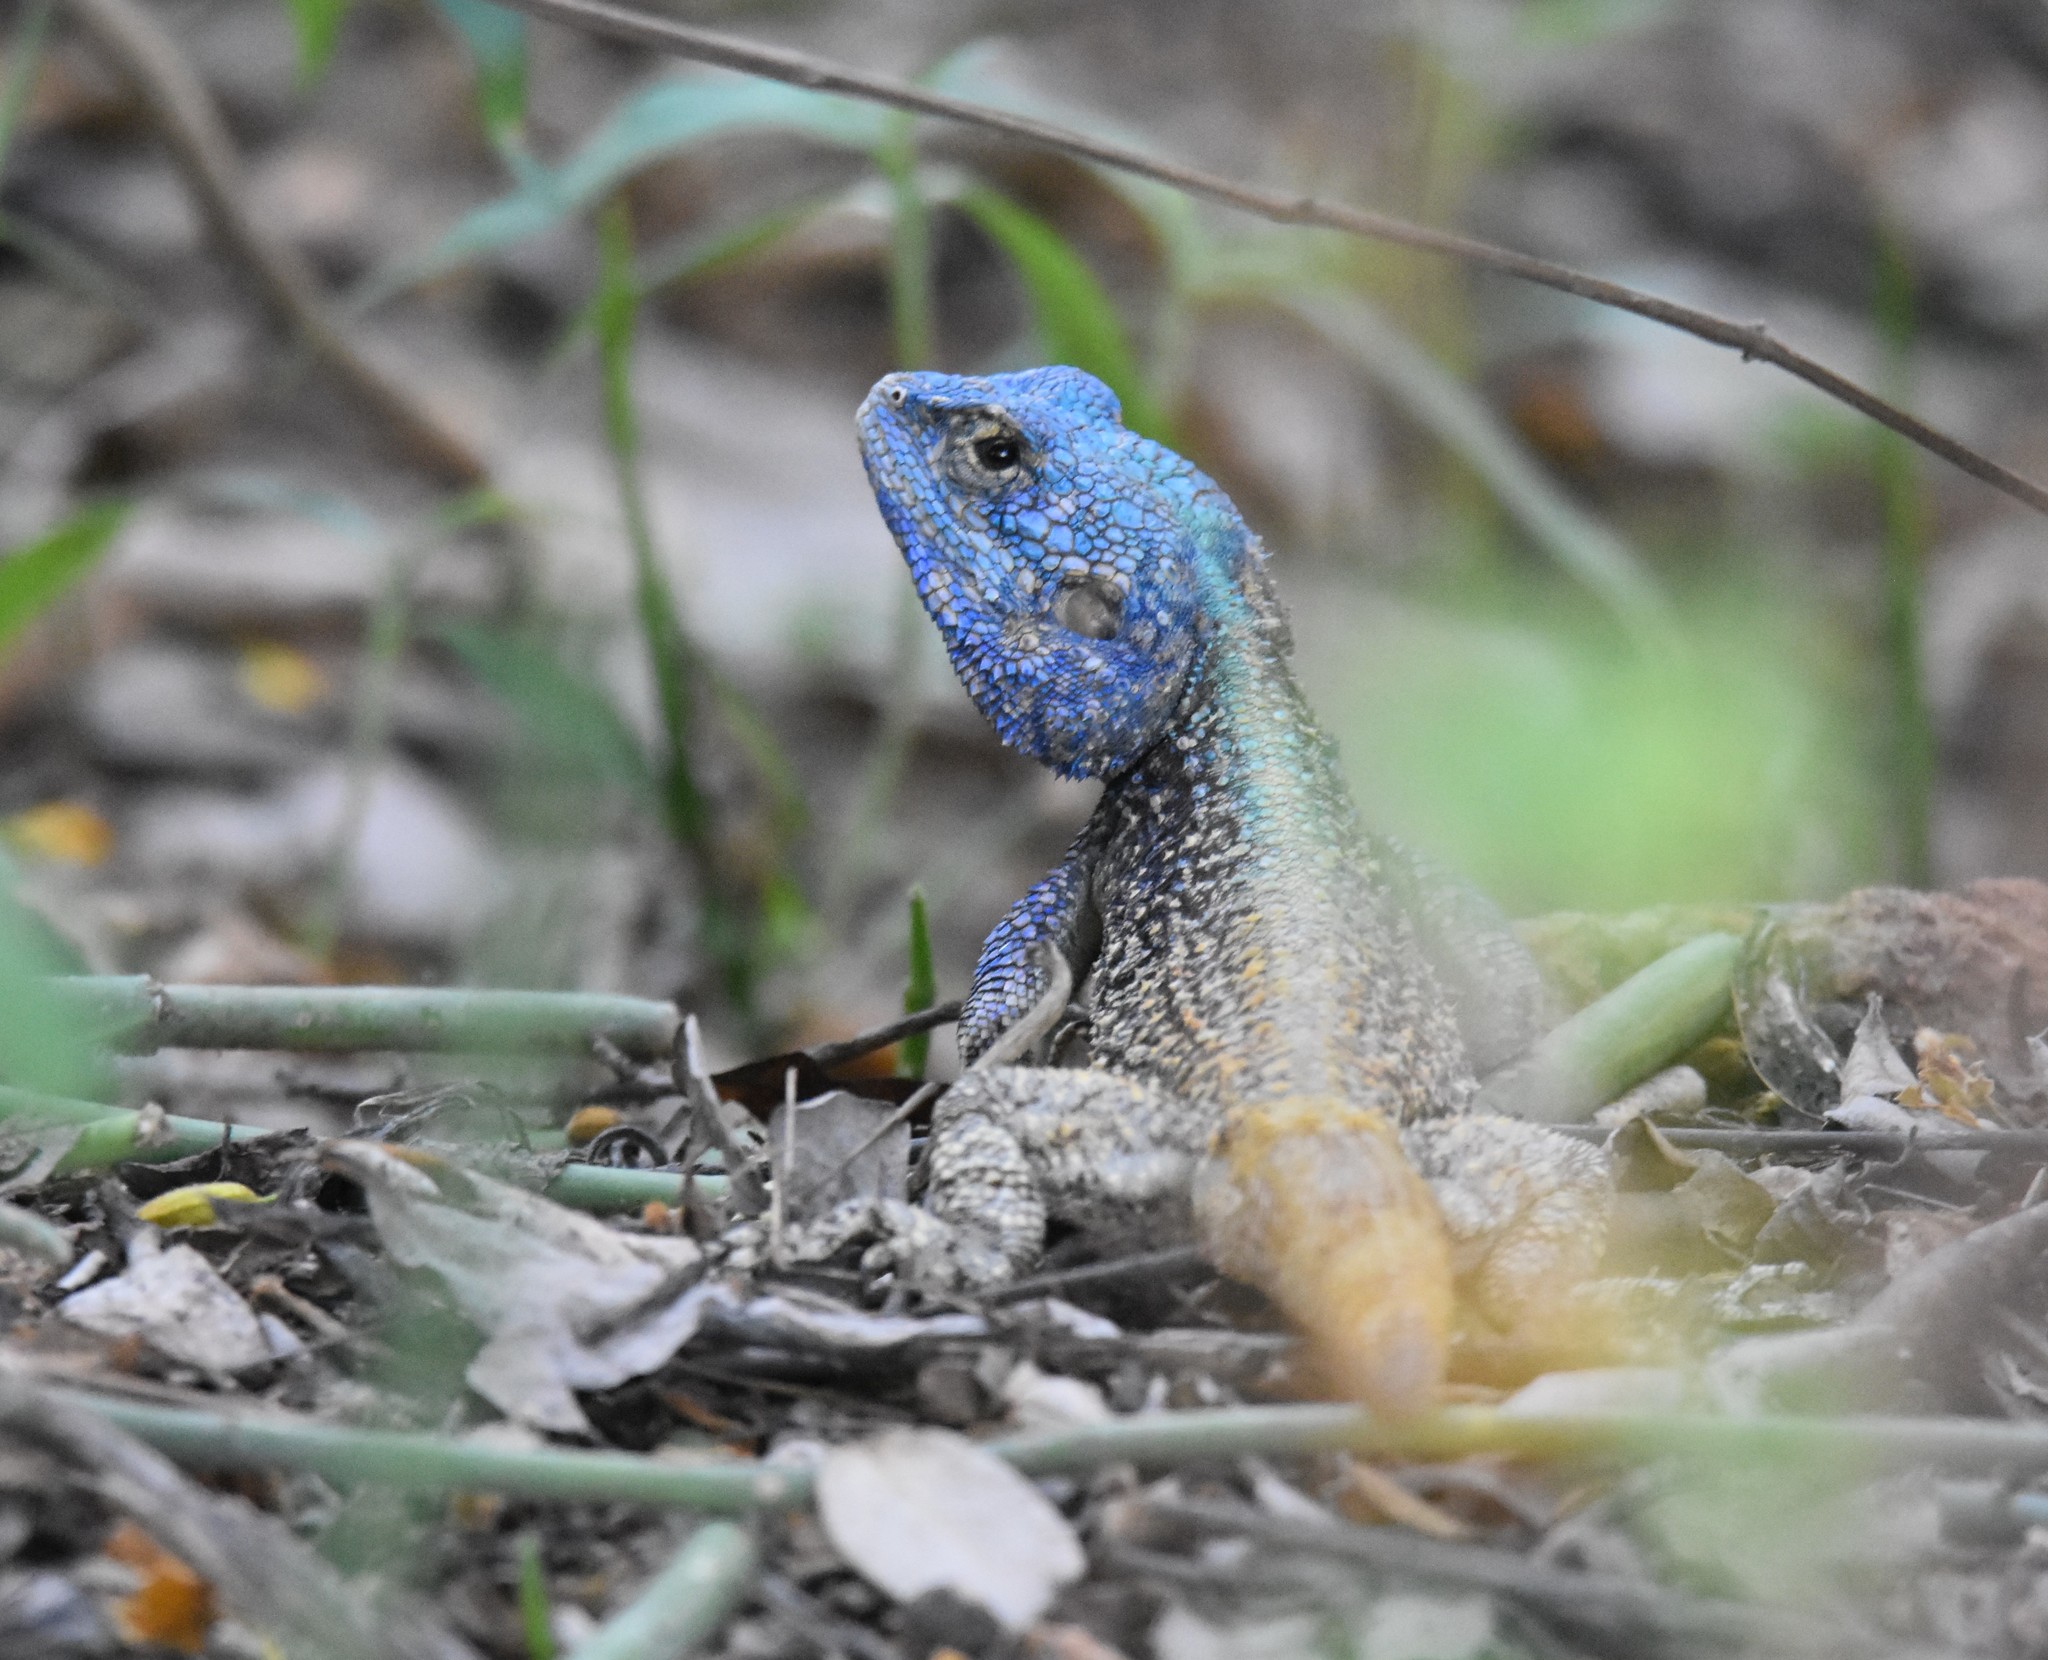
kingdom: Animalia
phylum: Chordata
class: Squamata
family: Agamidae
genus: Acanthocercus
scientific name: Acanthocercus atricollis
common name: Southern tree agama
